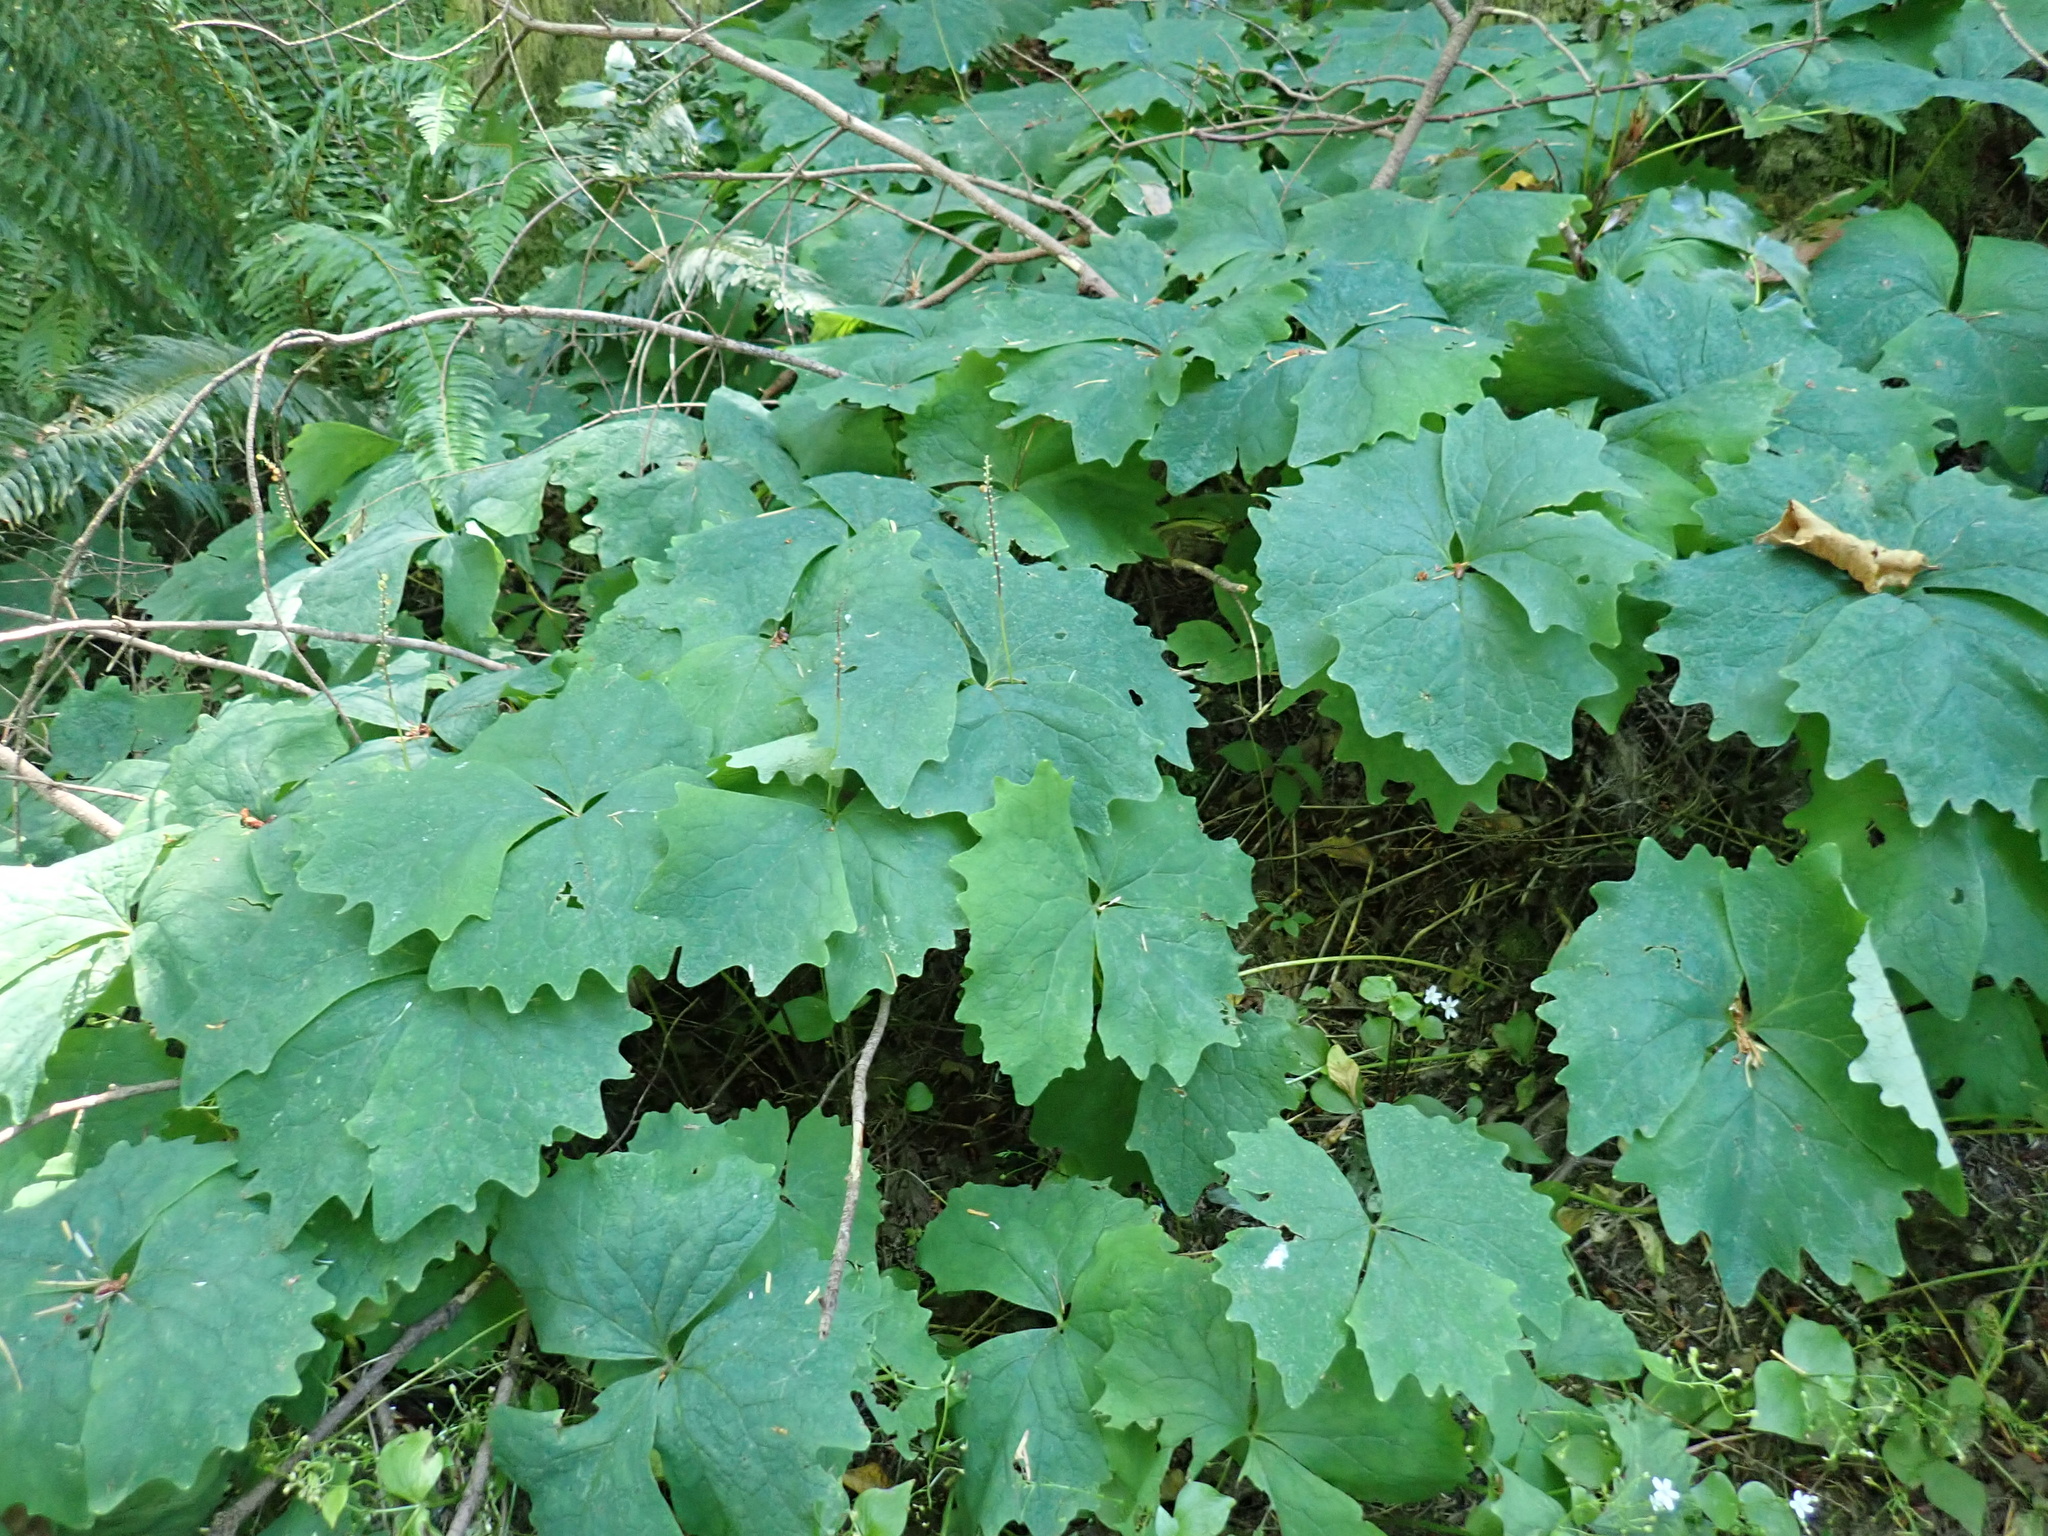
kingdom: Plantae
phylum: Tracheophyta
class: Magnoliopsida
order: Ranunculales
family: Berberidaceae
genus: Achlys
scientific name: Achlys triphylla
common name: Vanilla-leaf
